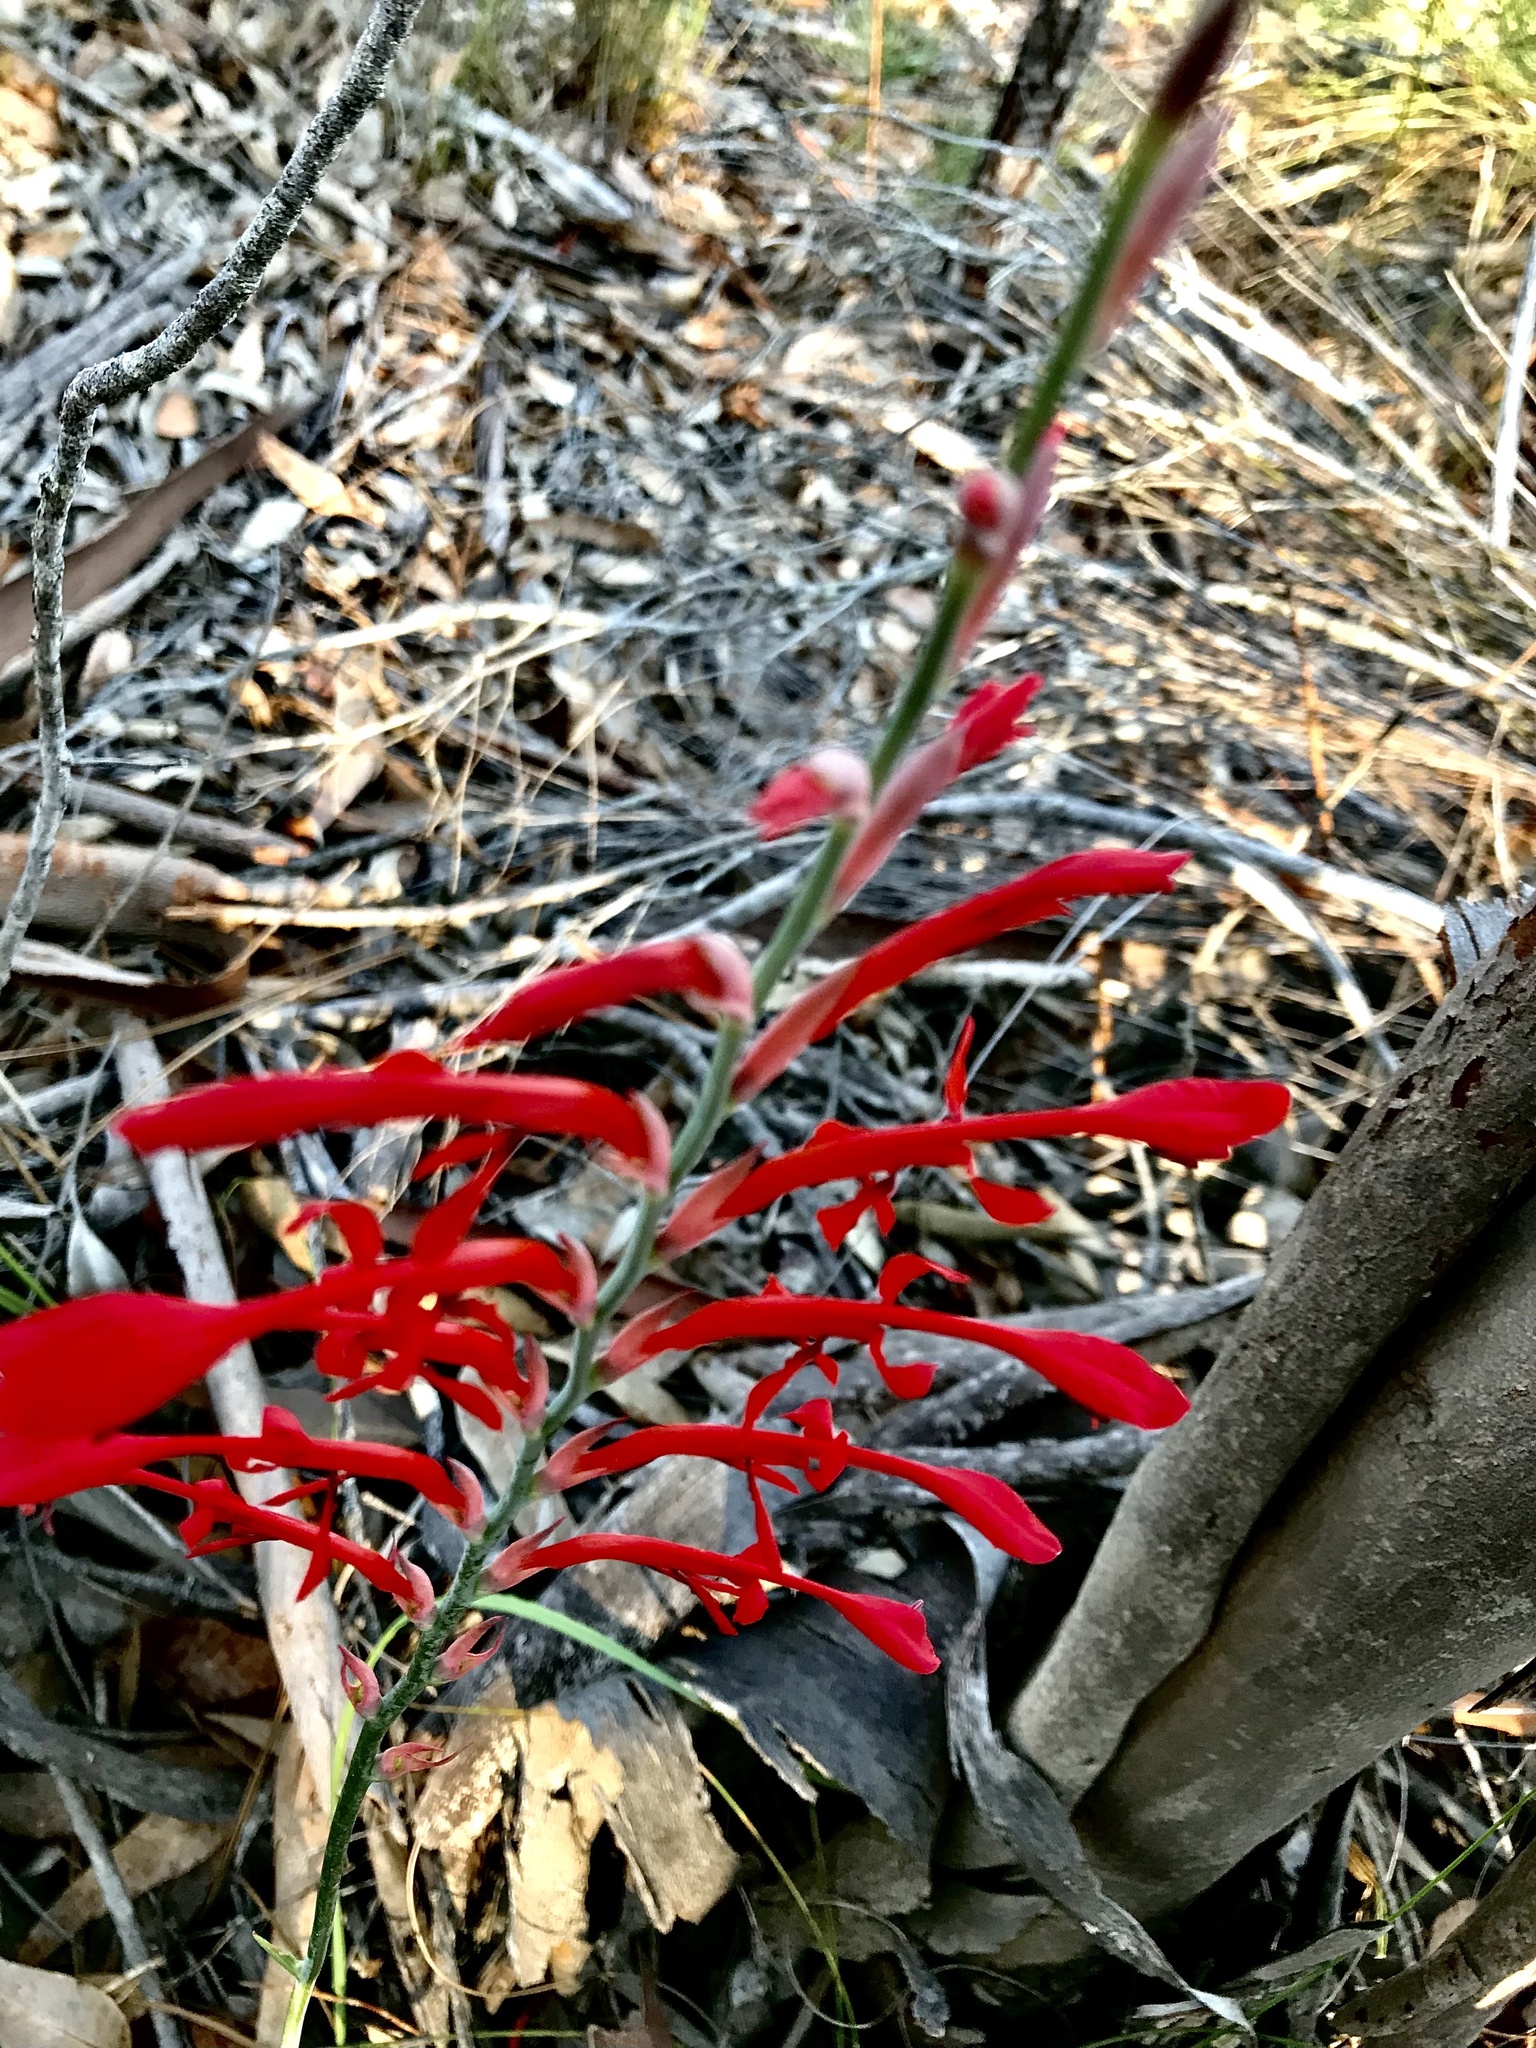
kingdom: Plantae
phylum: Tracheophyta
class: Liliopsida
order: Asparagales
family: Iridaceae
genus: Tritoniopsis
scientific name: Tritoniopsis caffra
